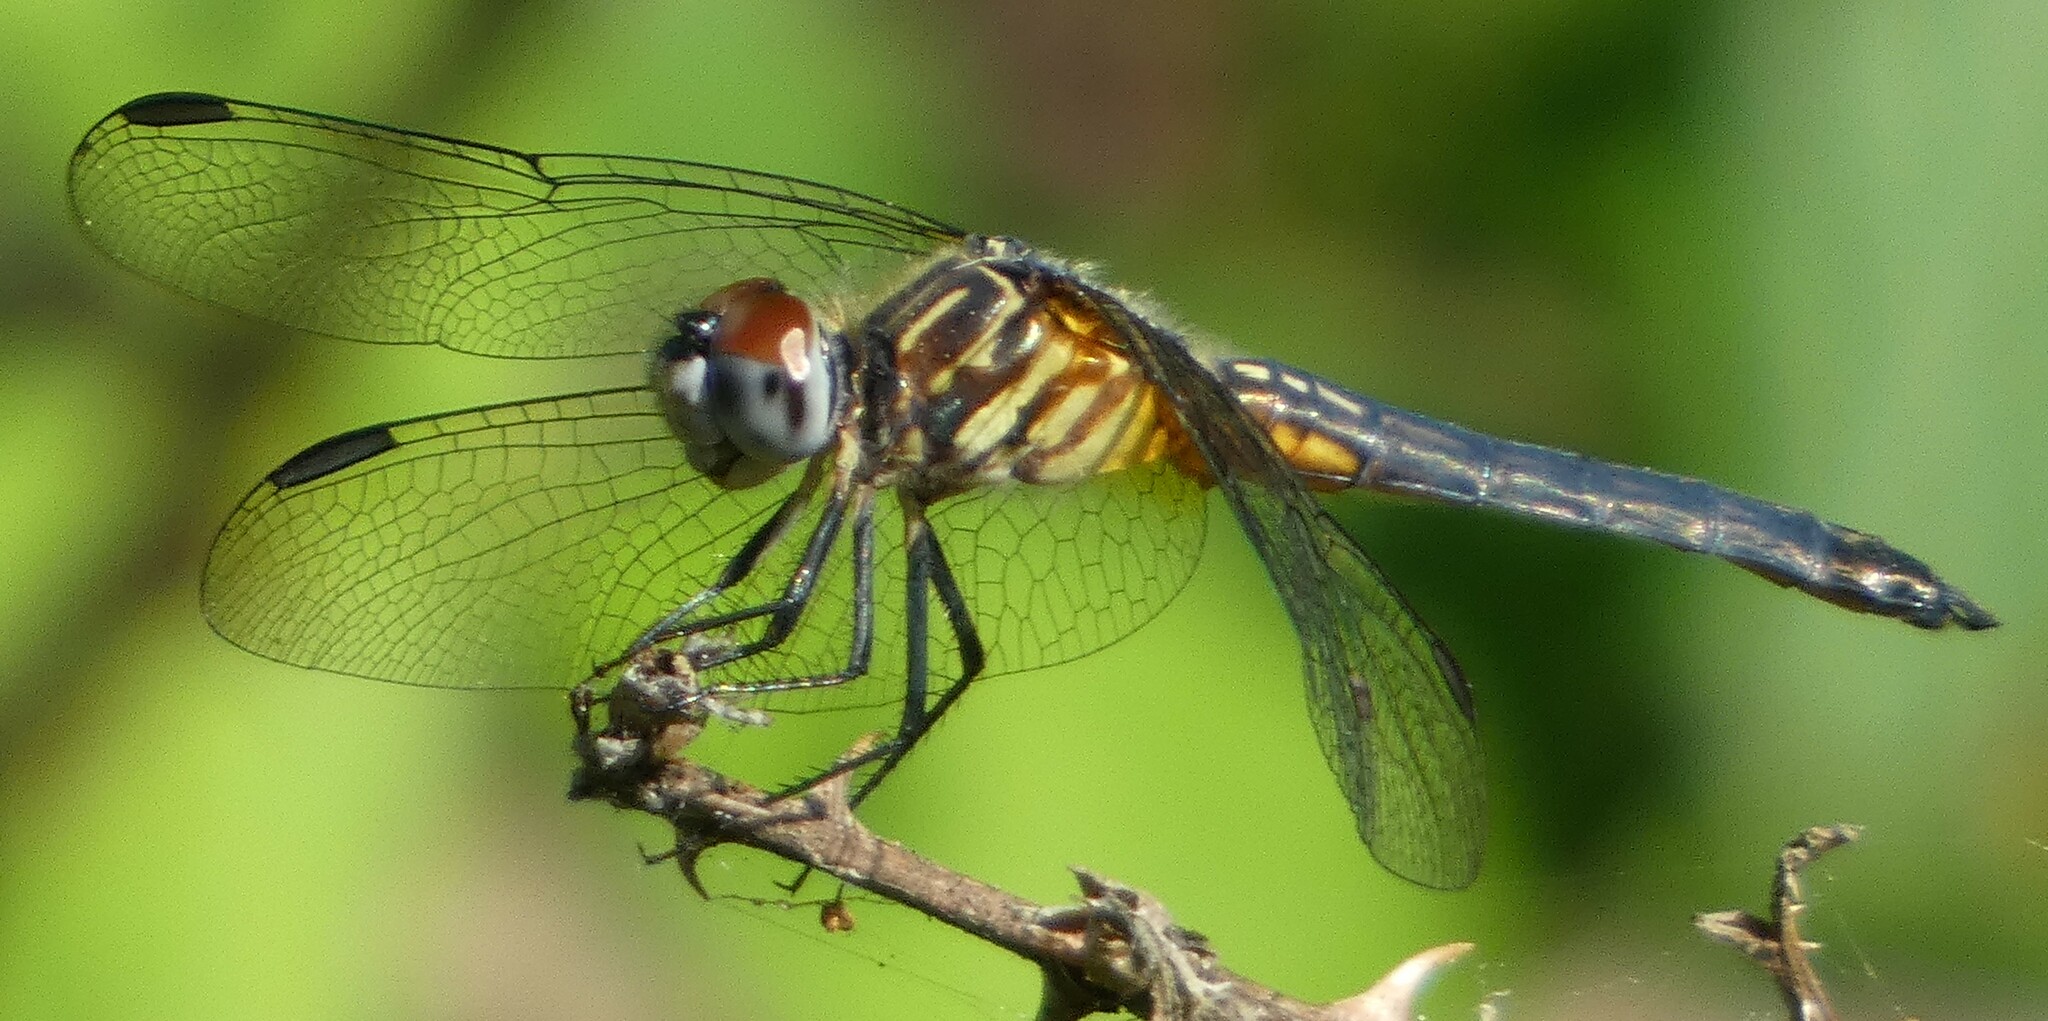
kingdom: Animalia
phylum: Arthropoda
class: Insecta
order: Odonata
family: Libellulidae
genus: Pachydiplax
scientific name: Pachydiplax longipennis
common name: Blue dasher
